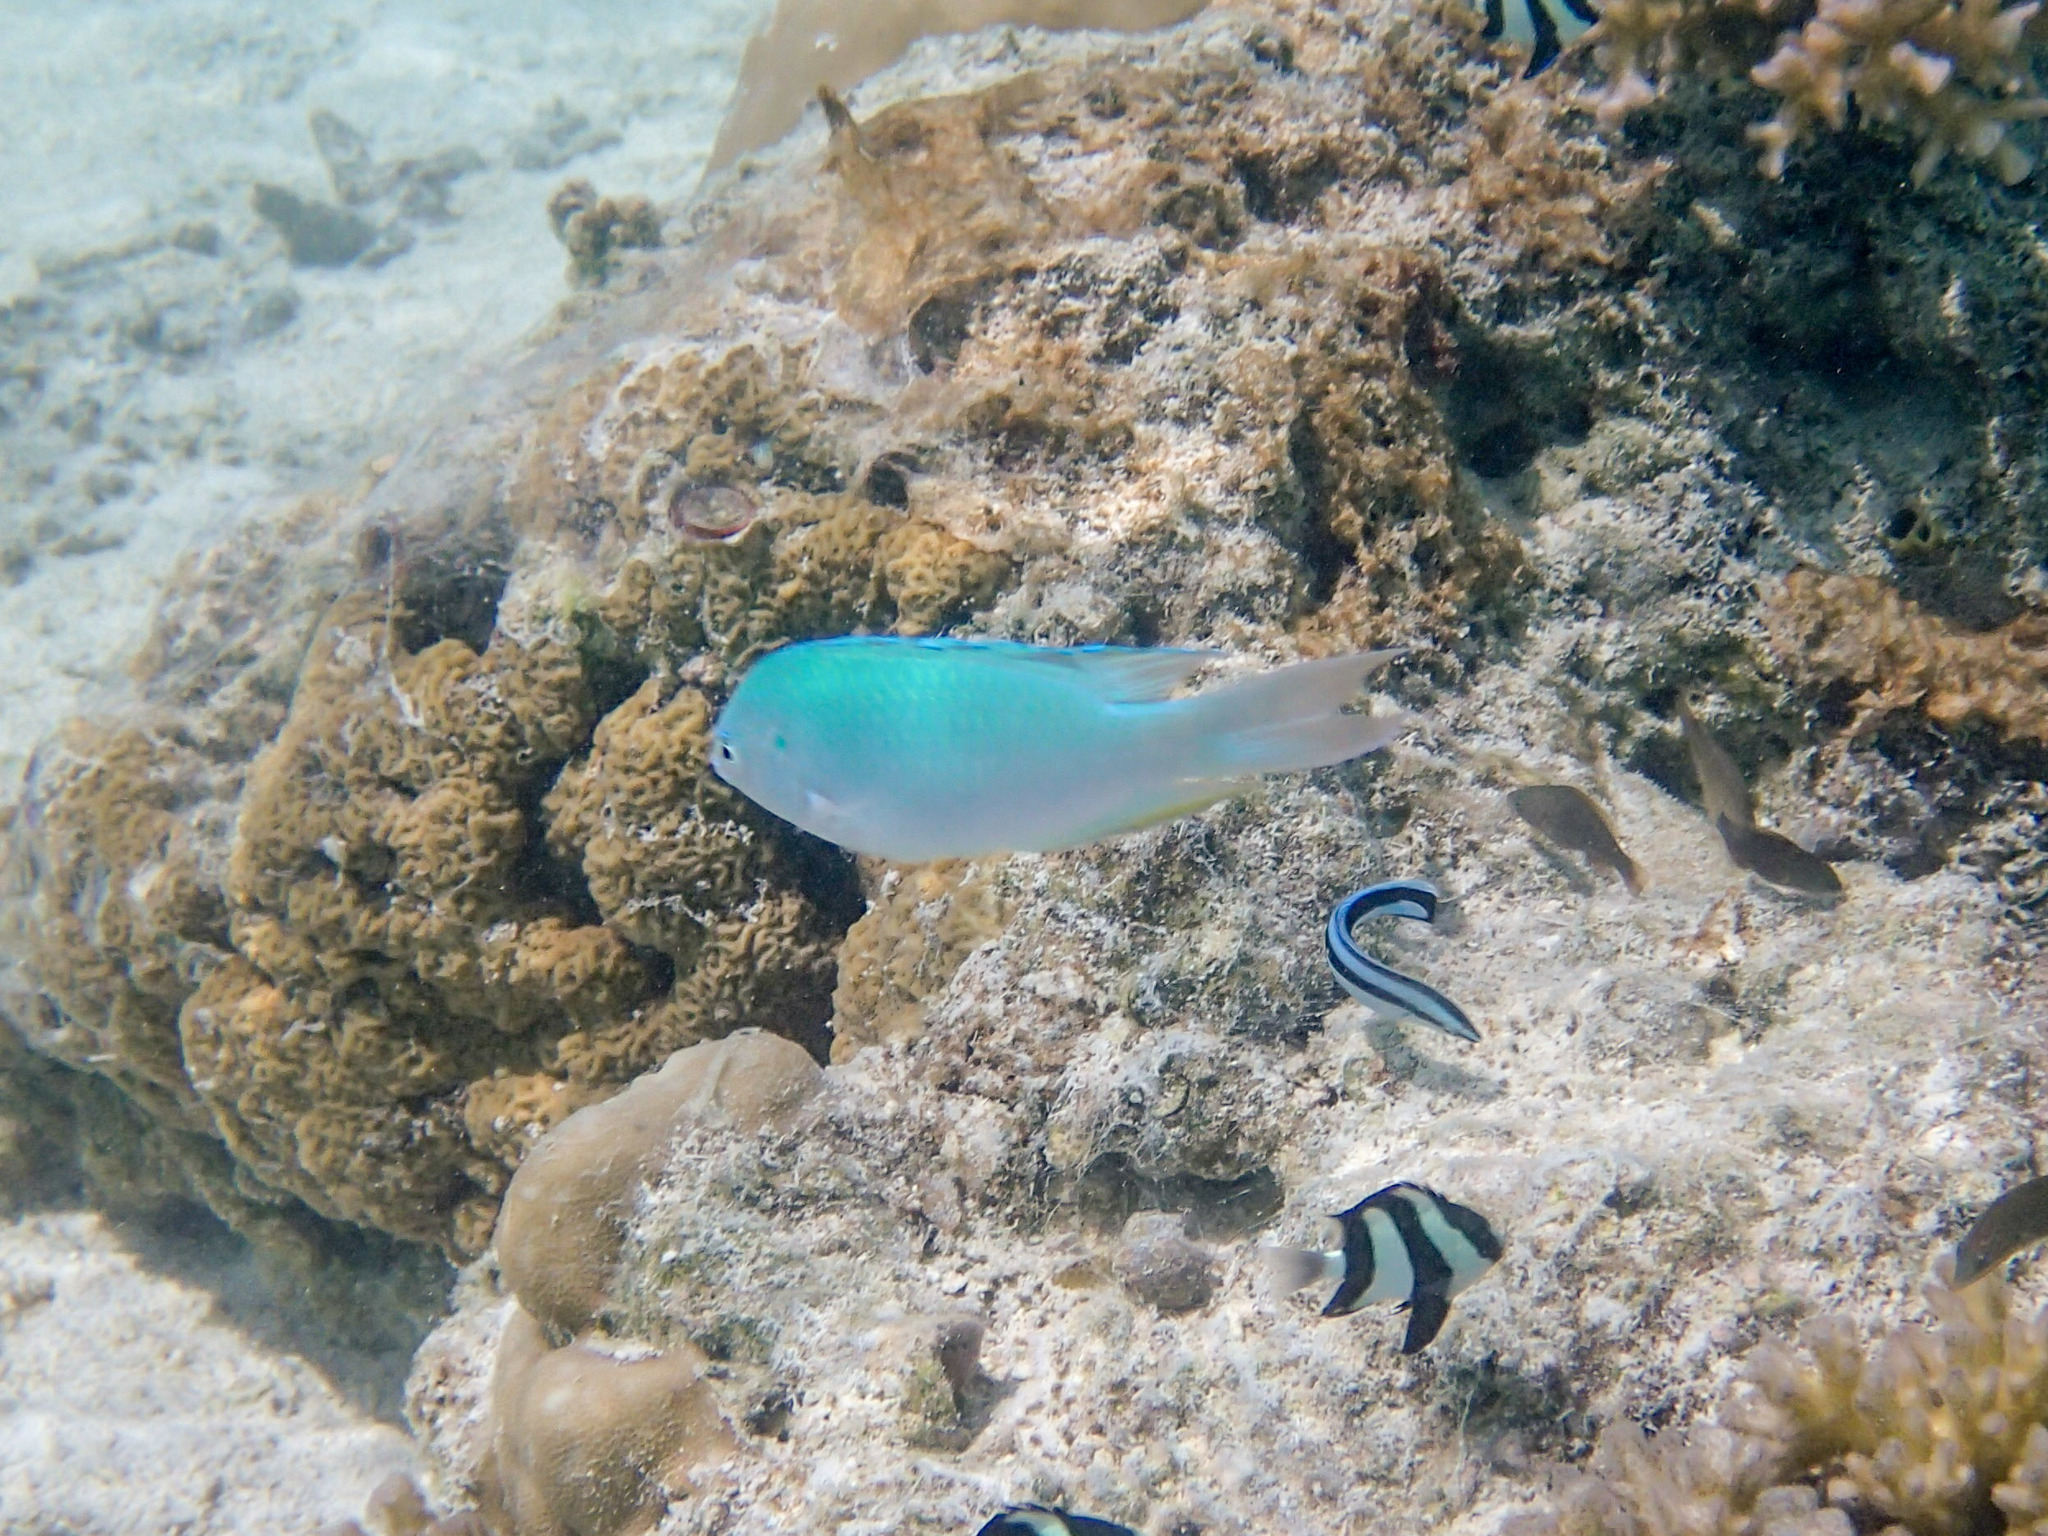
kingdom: Animalia
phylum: Chordata
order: Perciformes
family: Pomacentridae
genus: Pomacentrus
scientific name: Pomacentrus pavo
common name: Sapphire damsel
